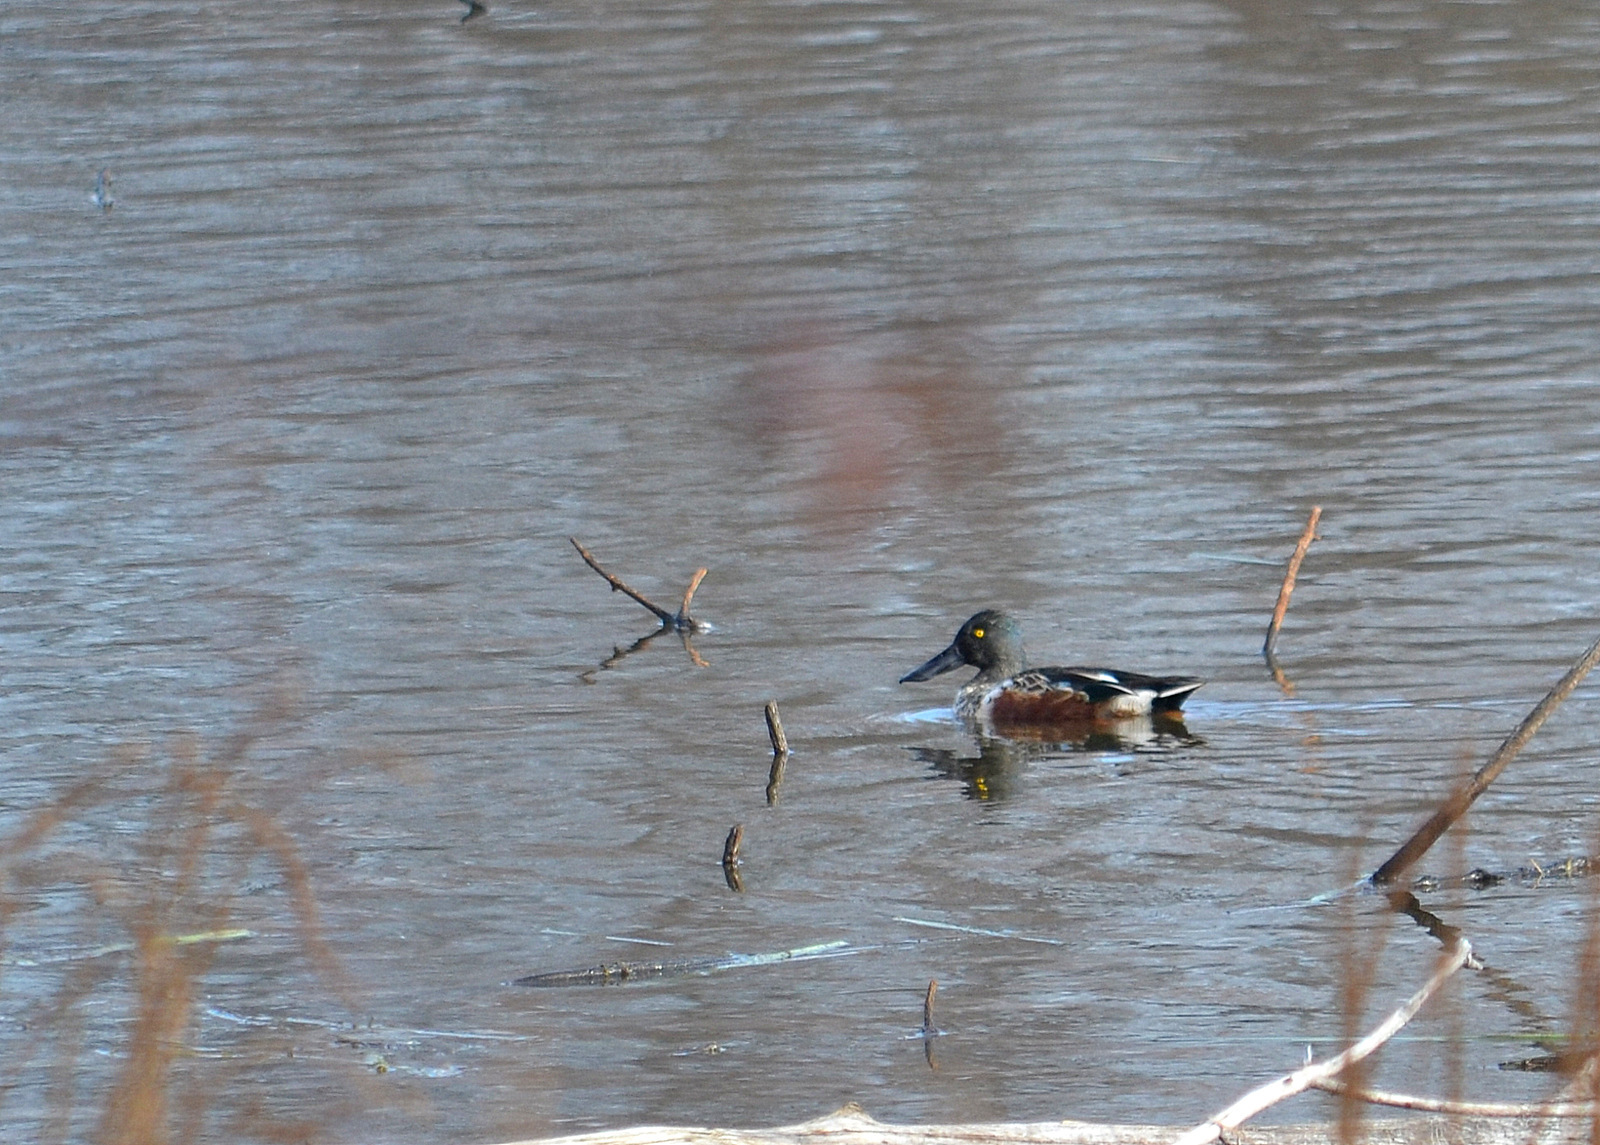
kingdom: Animalia
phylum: Chordata
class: Aves
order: Anseriformes
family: Anatidae
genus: Spatula
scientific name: Spatula clypeata
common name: Northern shoveler
